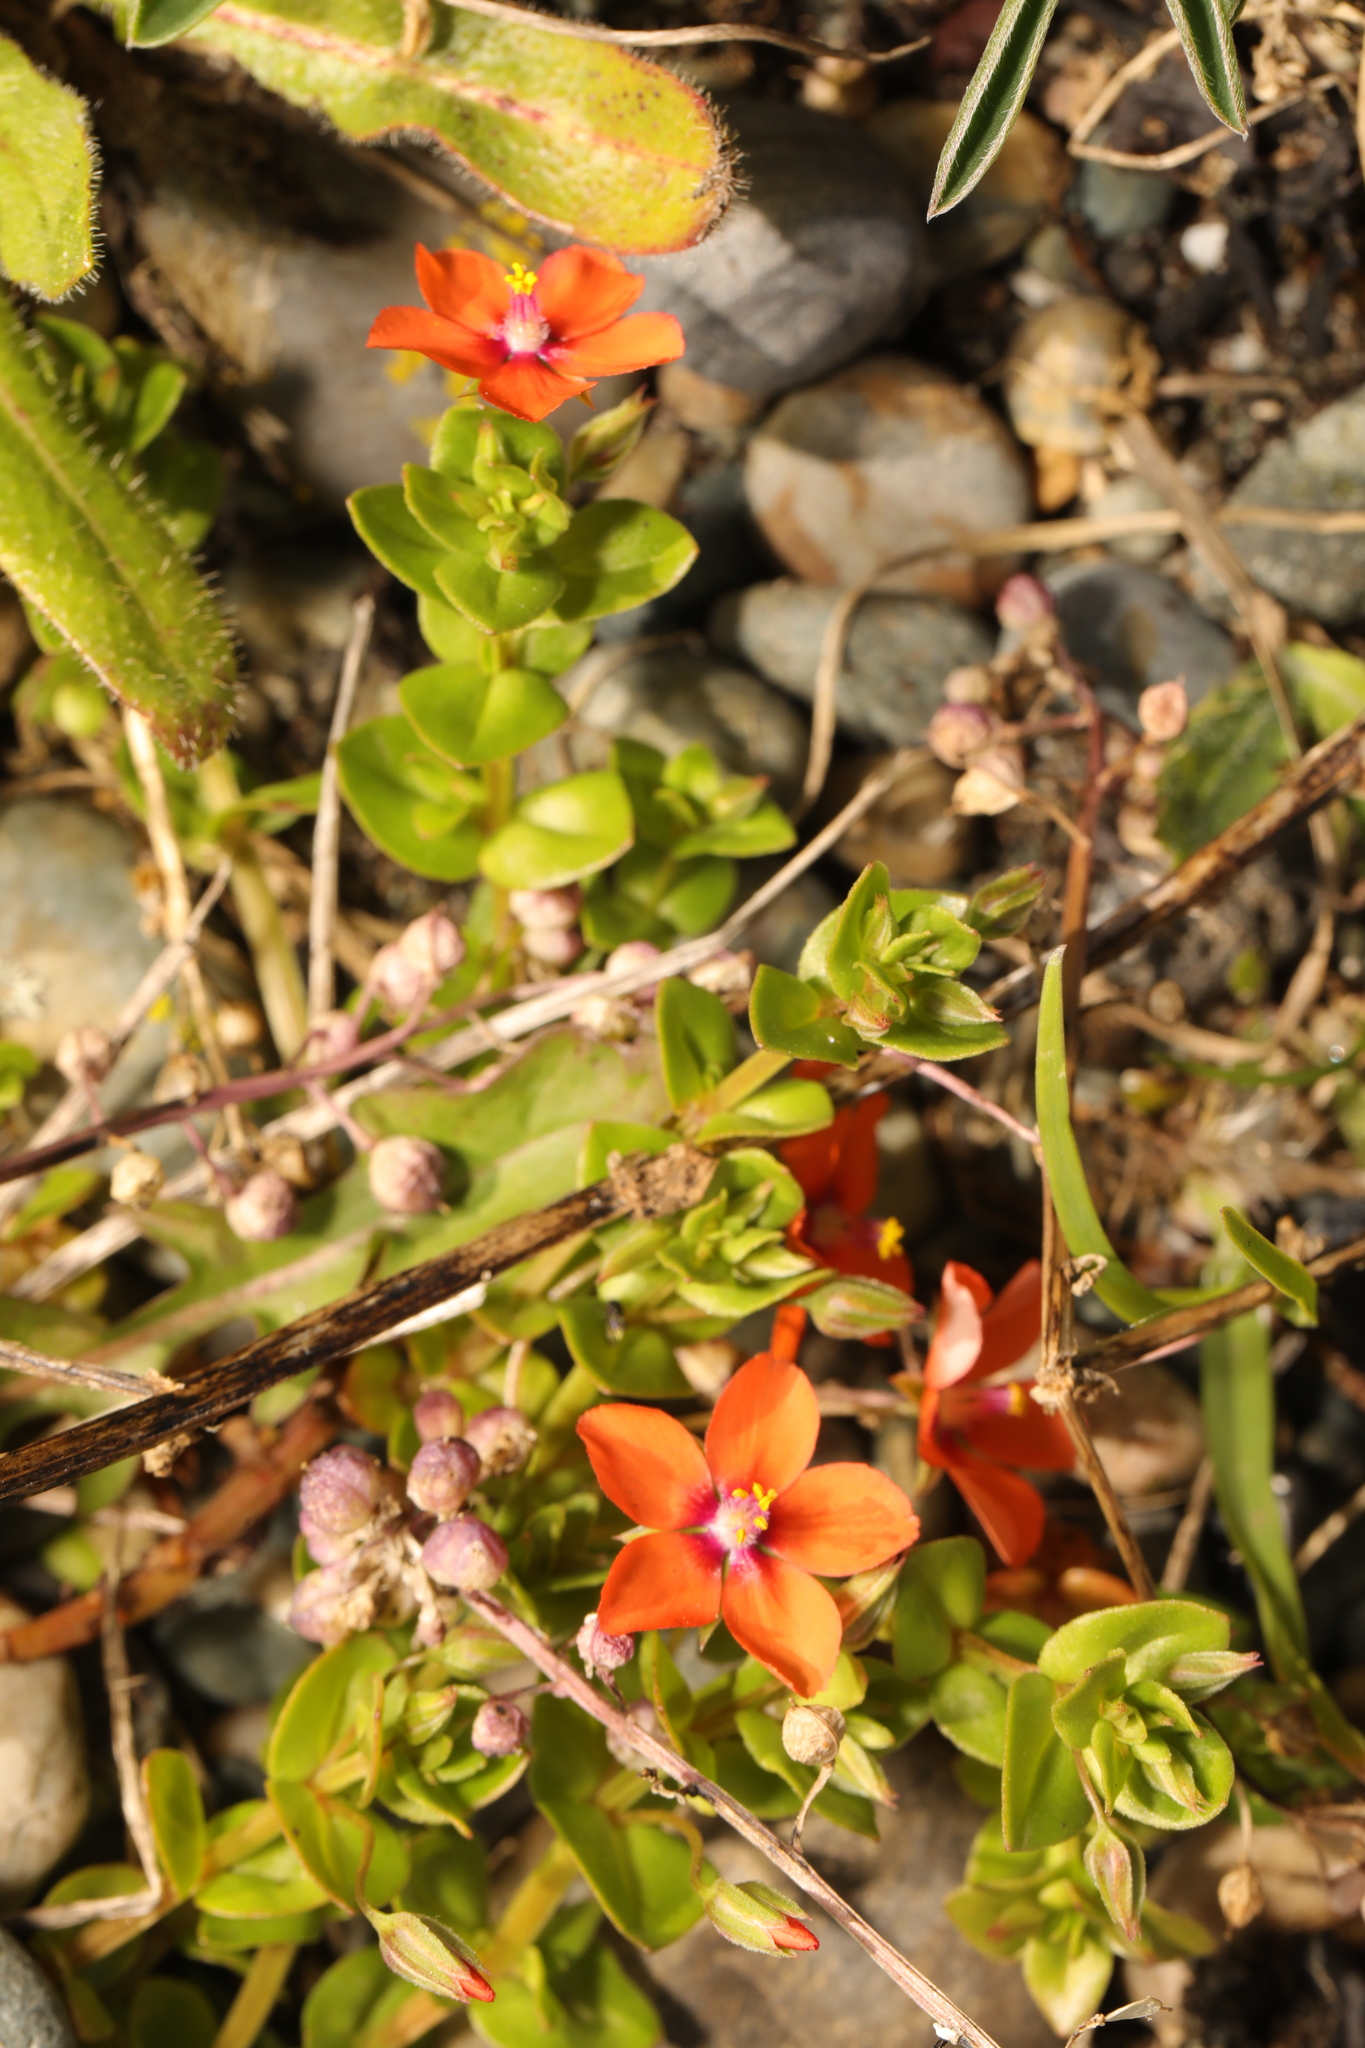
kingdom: Plantae
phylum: Tracheophyta
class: Magnoliopsida
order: Ericales
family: Primulaceae
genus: Lysimachia
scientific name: Lysimachia arvensis
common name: Scarlet pimpernel
